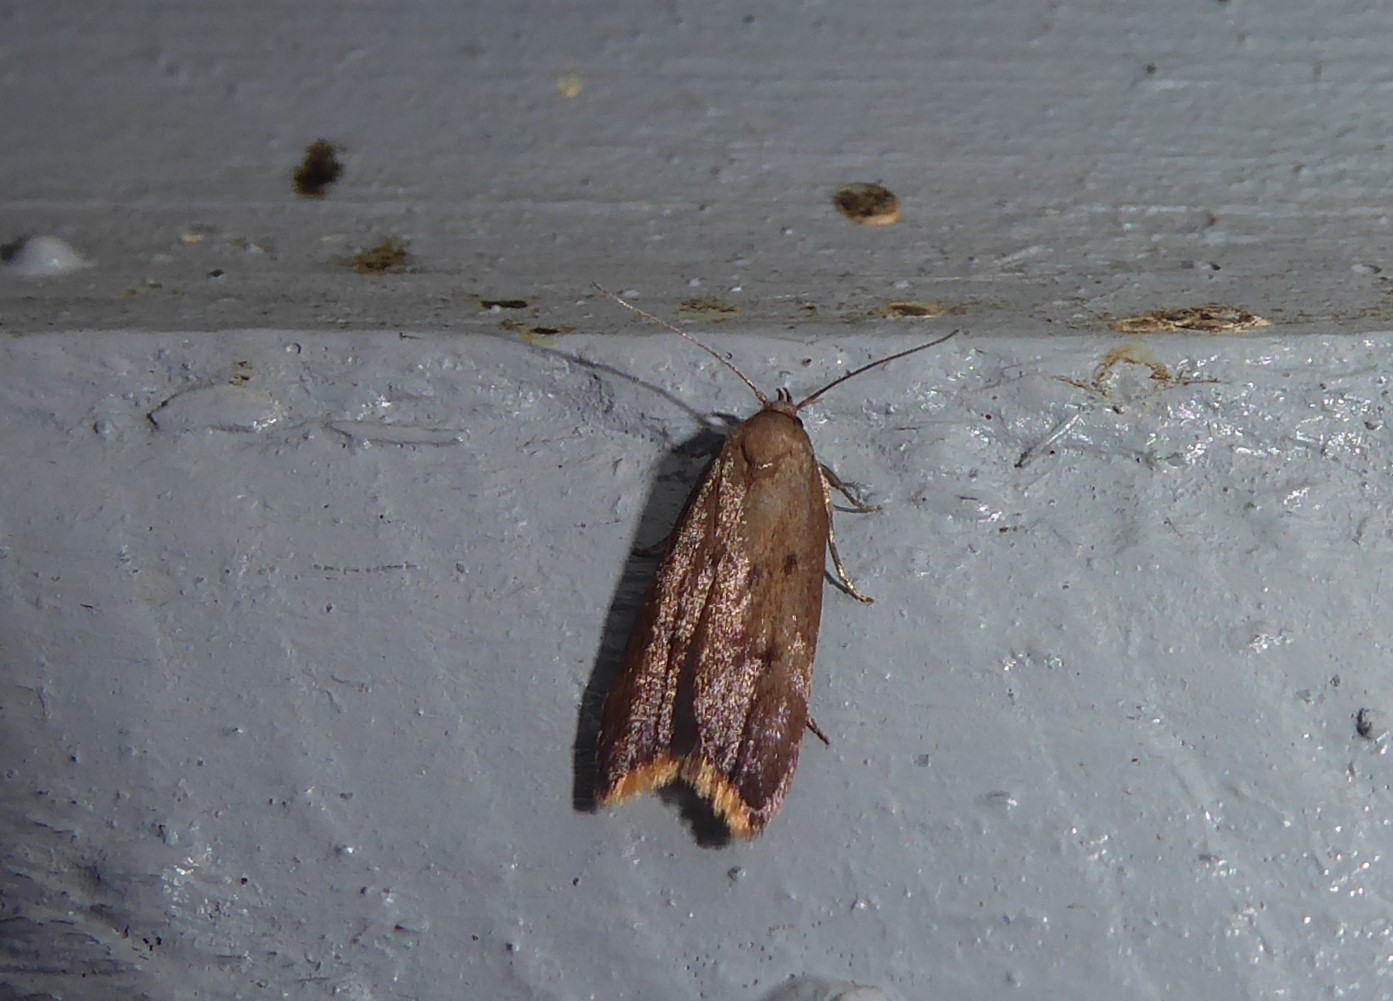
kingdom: Animalia
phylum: Arthropoda
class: Insecta
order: Lepidoptera
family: Oecophoridae
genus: Tachystola
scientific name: Tachystola acroxantha
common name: Ruddy streak
